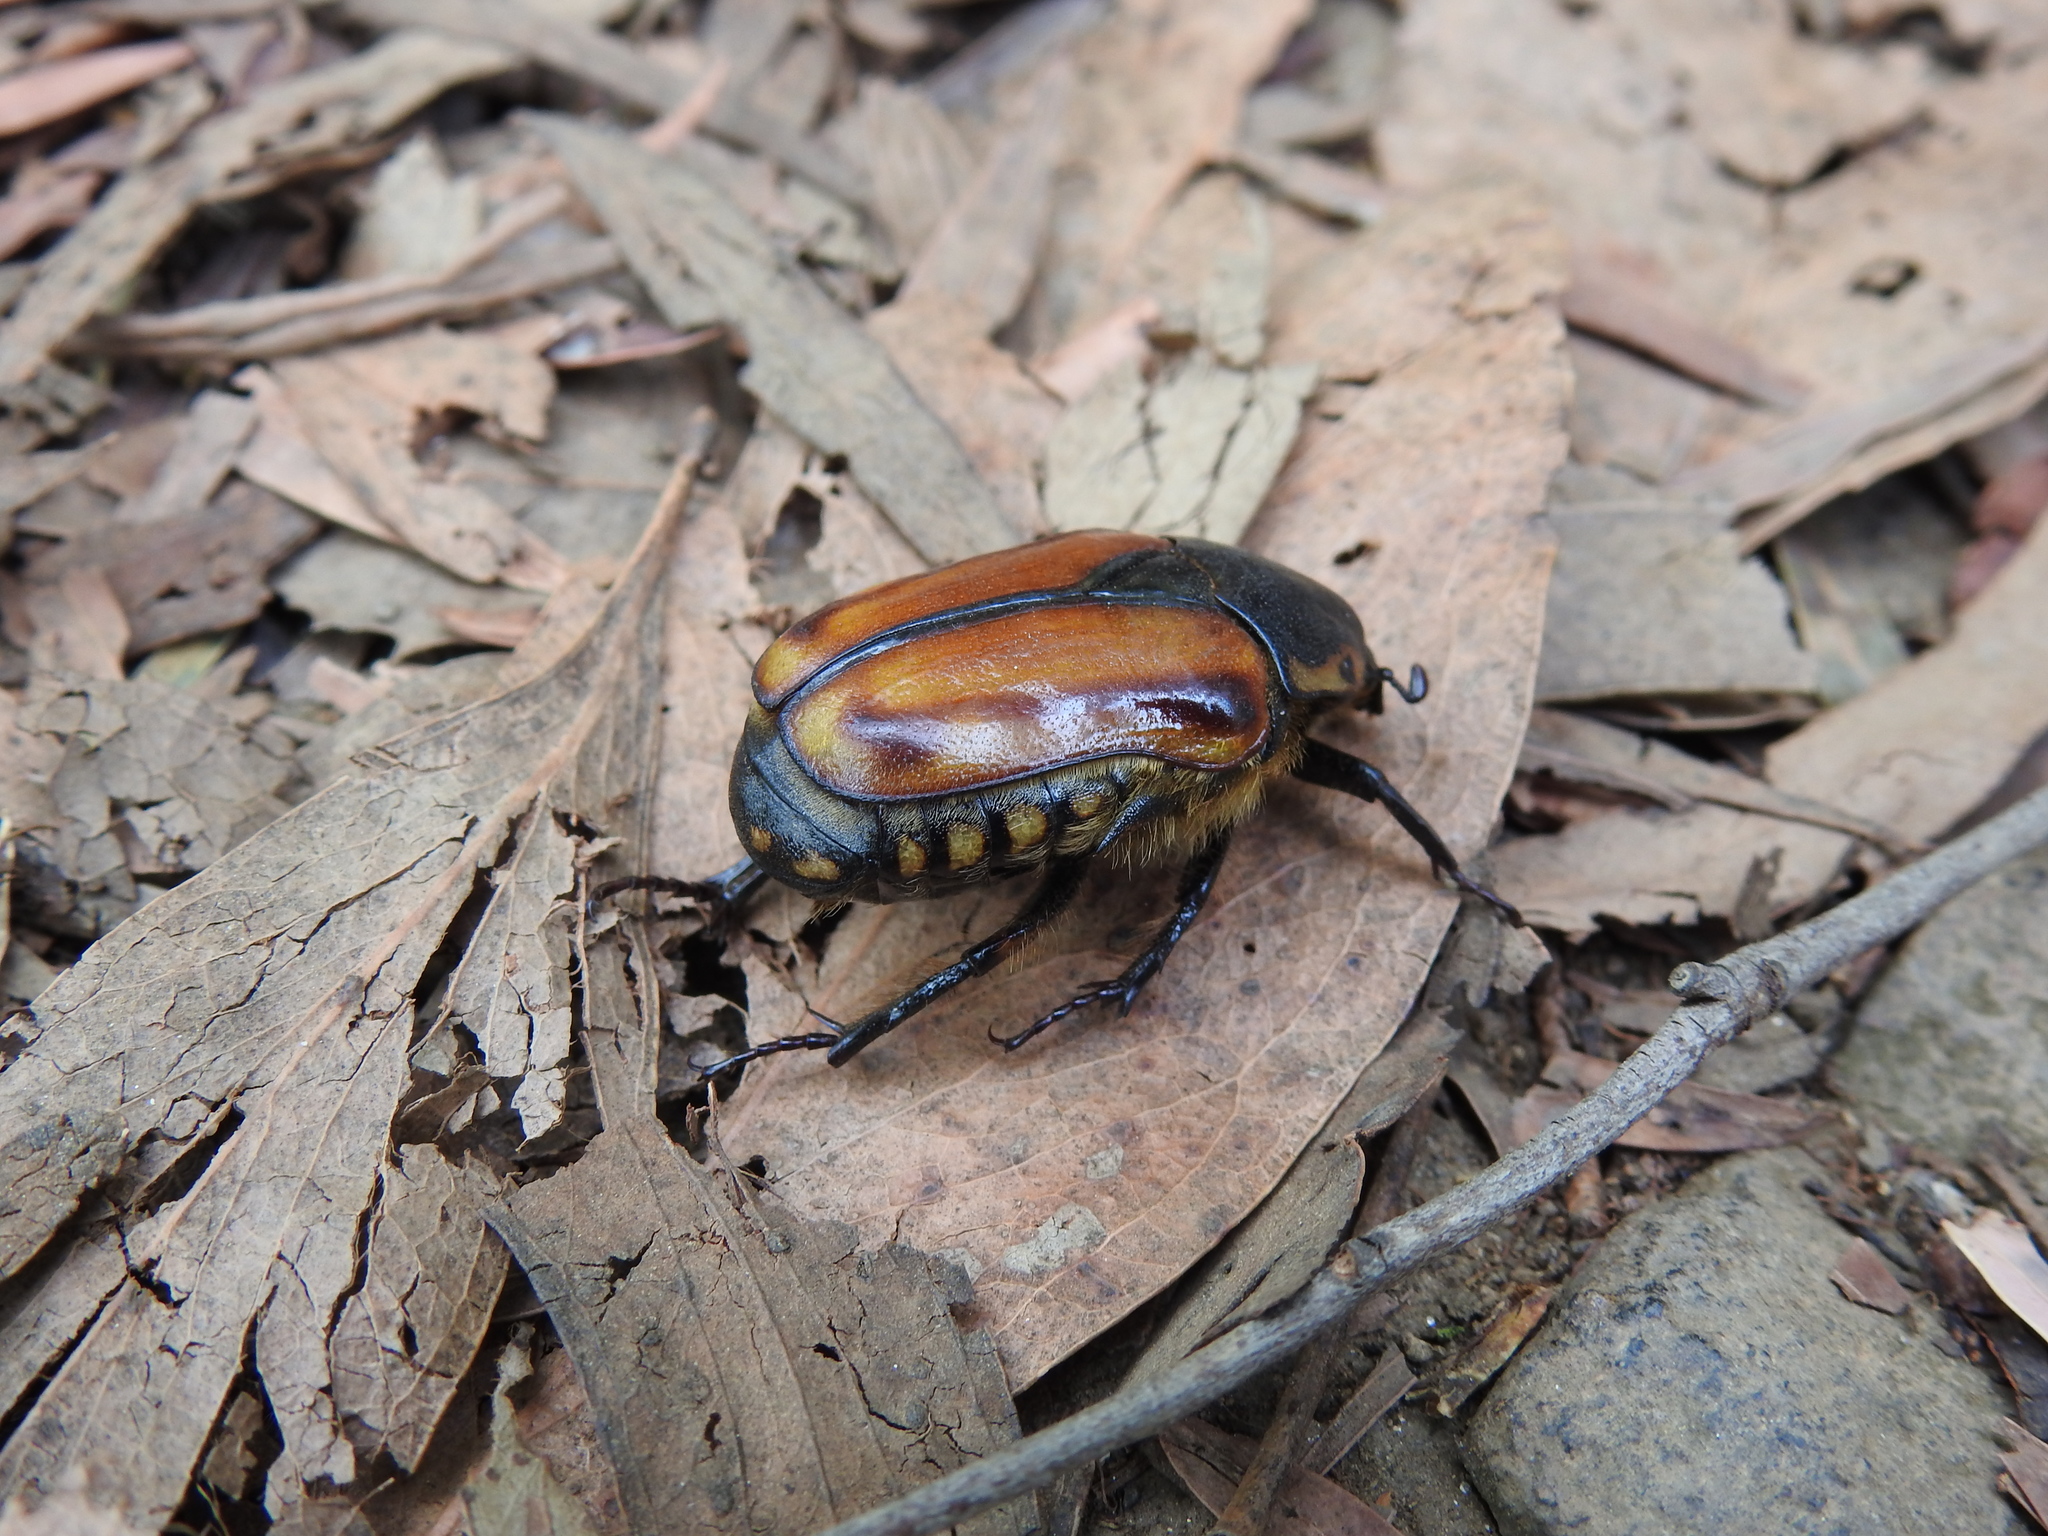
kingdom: Animalia
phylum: Arthropoda
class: Insecta
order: Coleoptera
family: Scarabaeidae
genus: Chondropyga
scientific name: Chondropyga gulosa
